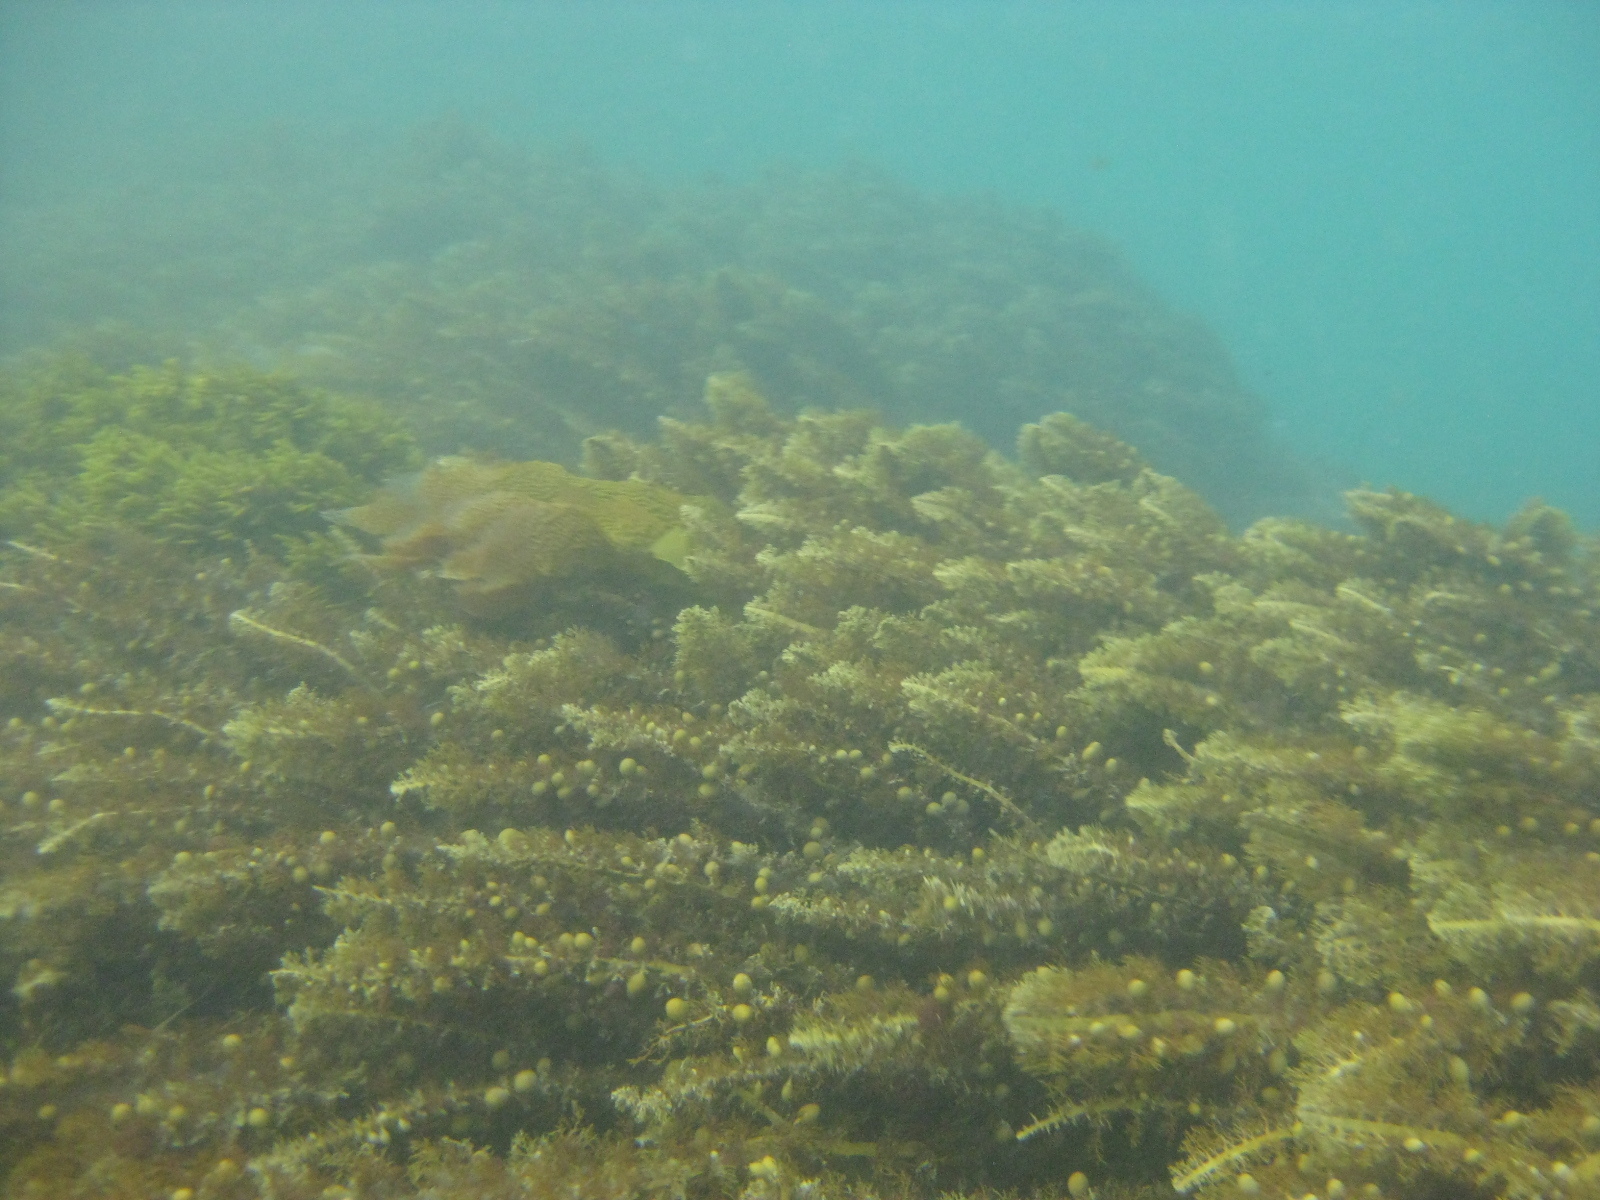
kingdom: Chromista
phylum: Ochrophyta
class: Phaeophyceae
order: Fucales
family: Sargassaceae
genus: Carpophyllum
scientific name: Carpophyllum plumosum
